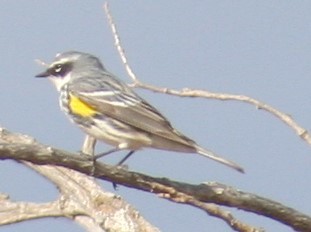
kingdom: Animalia
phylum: Chordata
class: Aves
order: Passeriformes
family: Parulidae
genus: Setophaga
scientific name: Setophaga coronata
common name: Myrtle warbler
